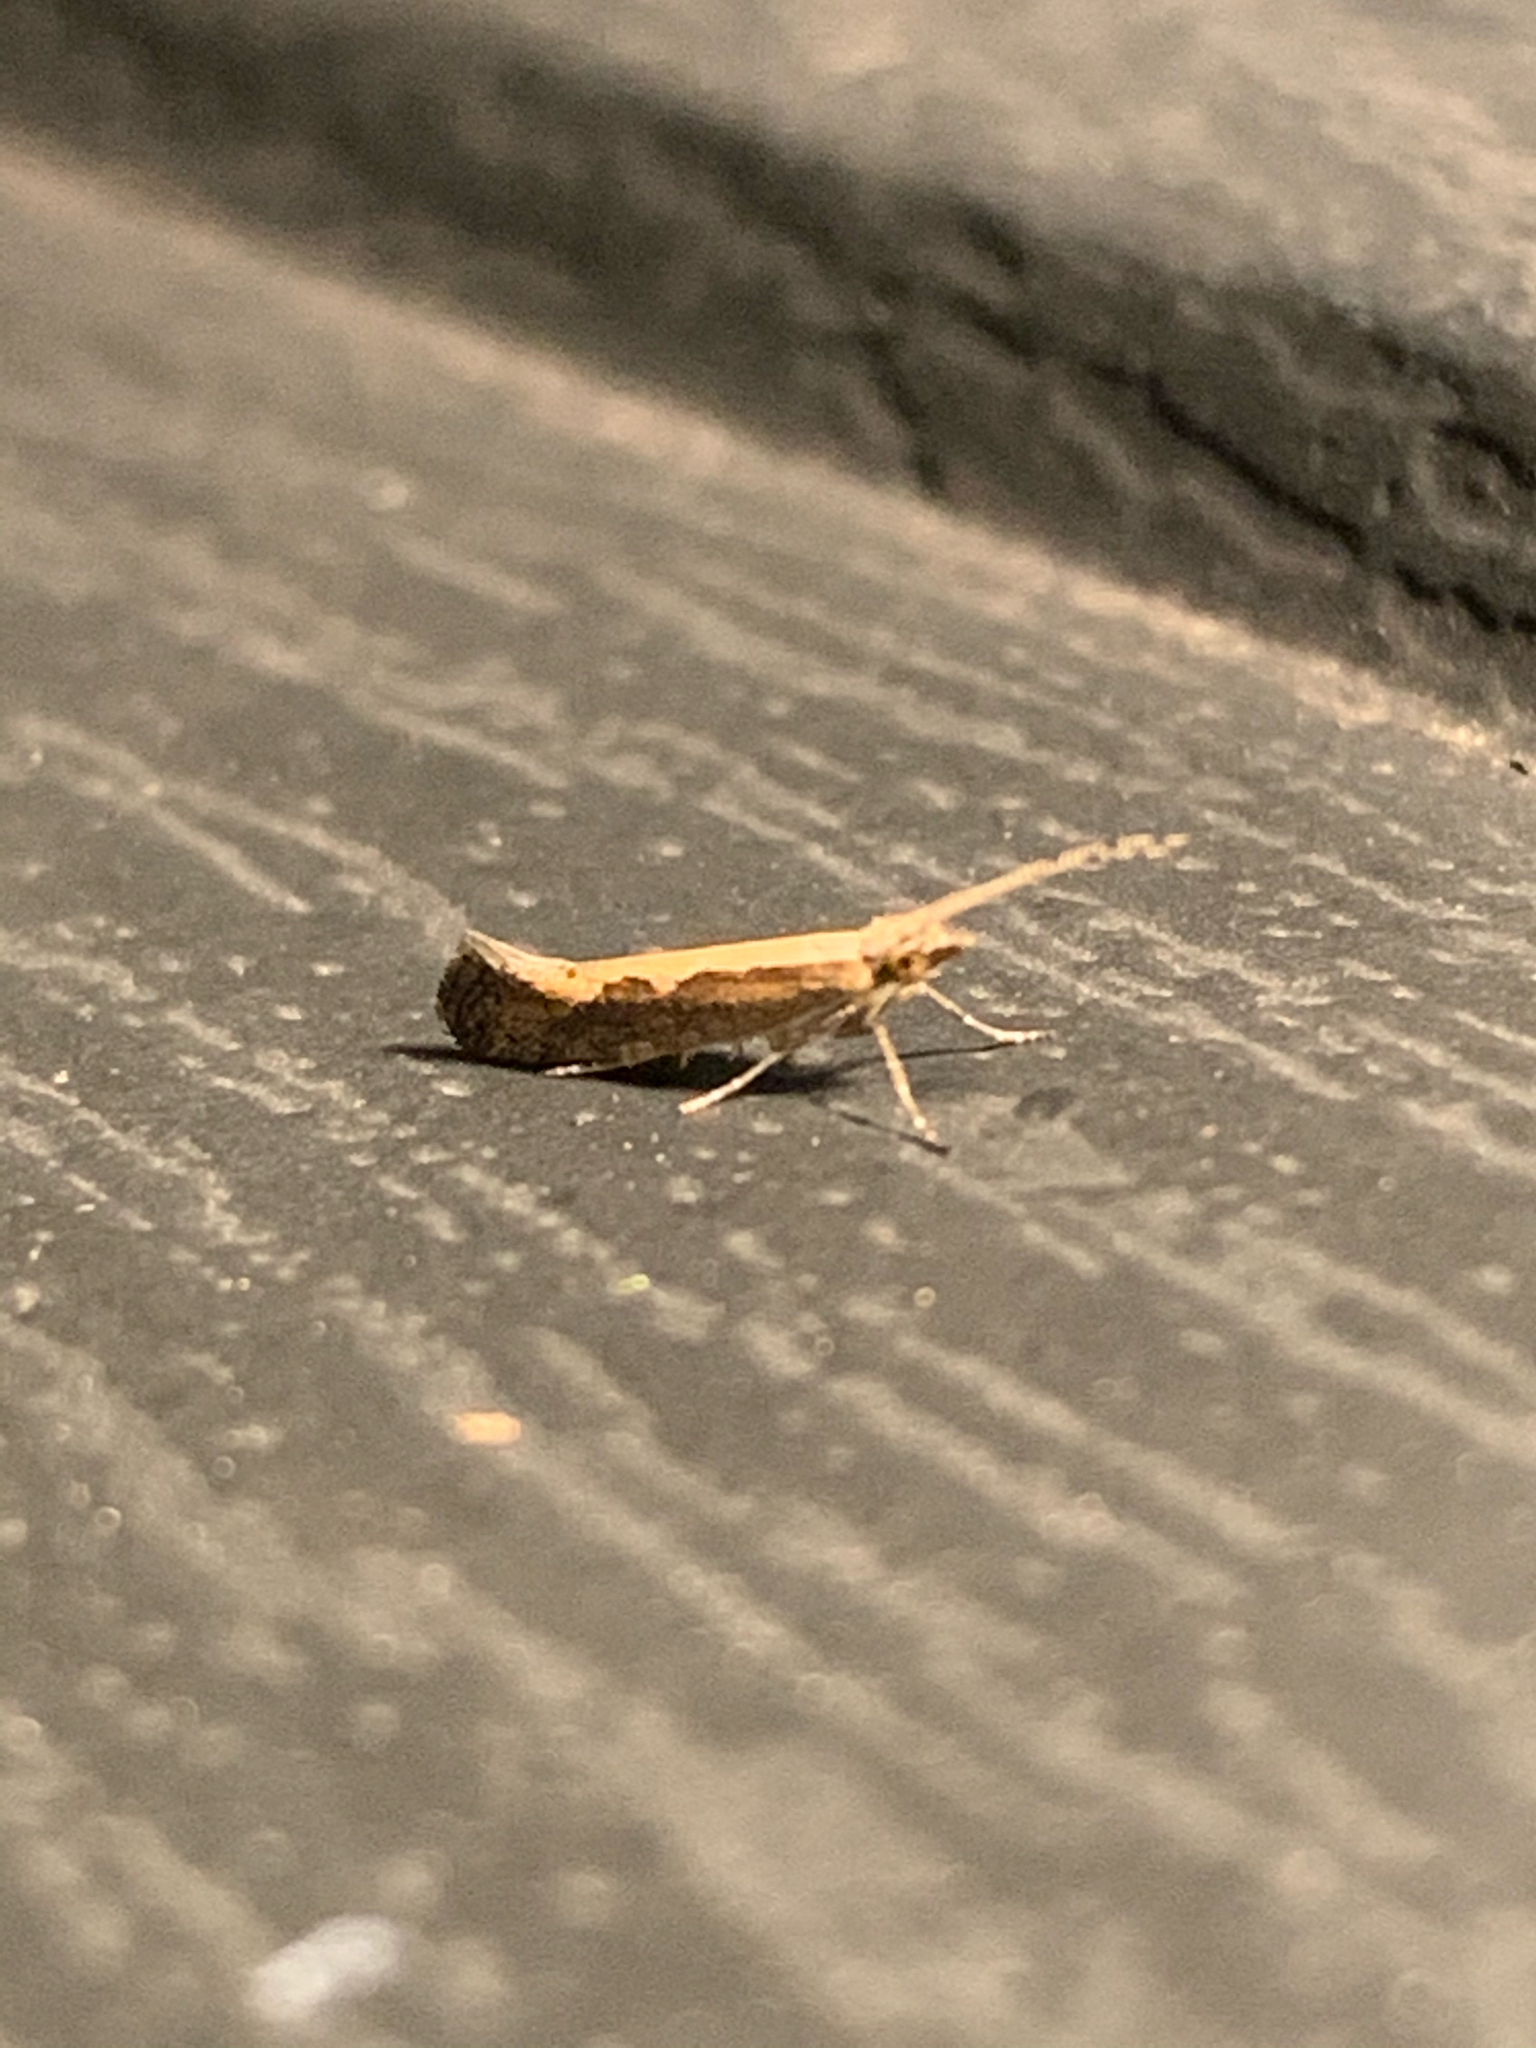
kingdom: Animalia
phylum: Arthropoda
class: Insecta
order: Lepidoptera
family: Plutellidae
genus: Plutella
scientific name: Plutella xylostella
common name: Diamond-back moth
